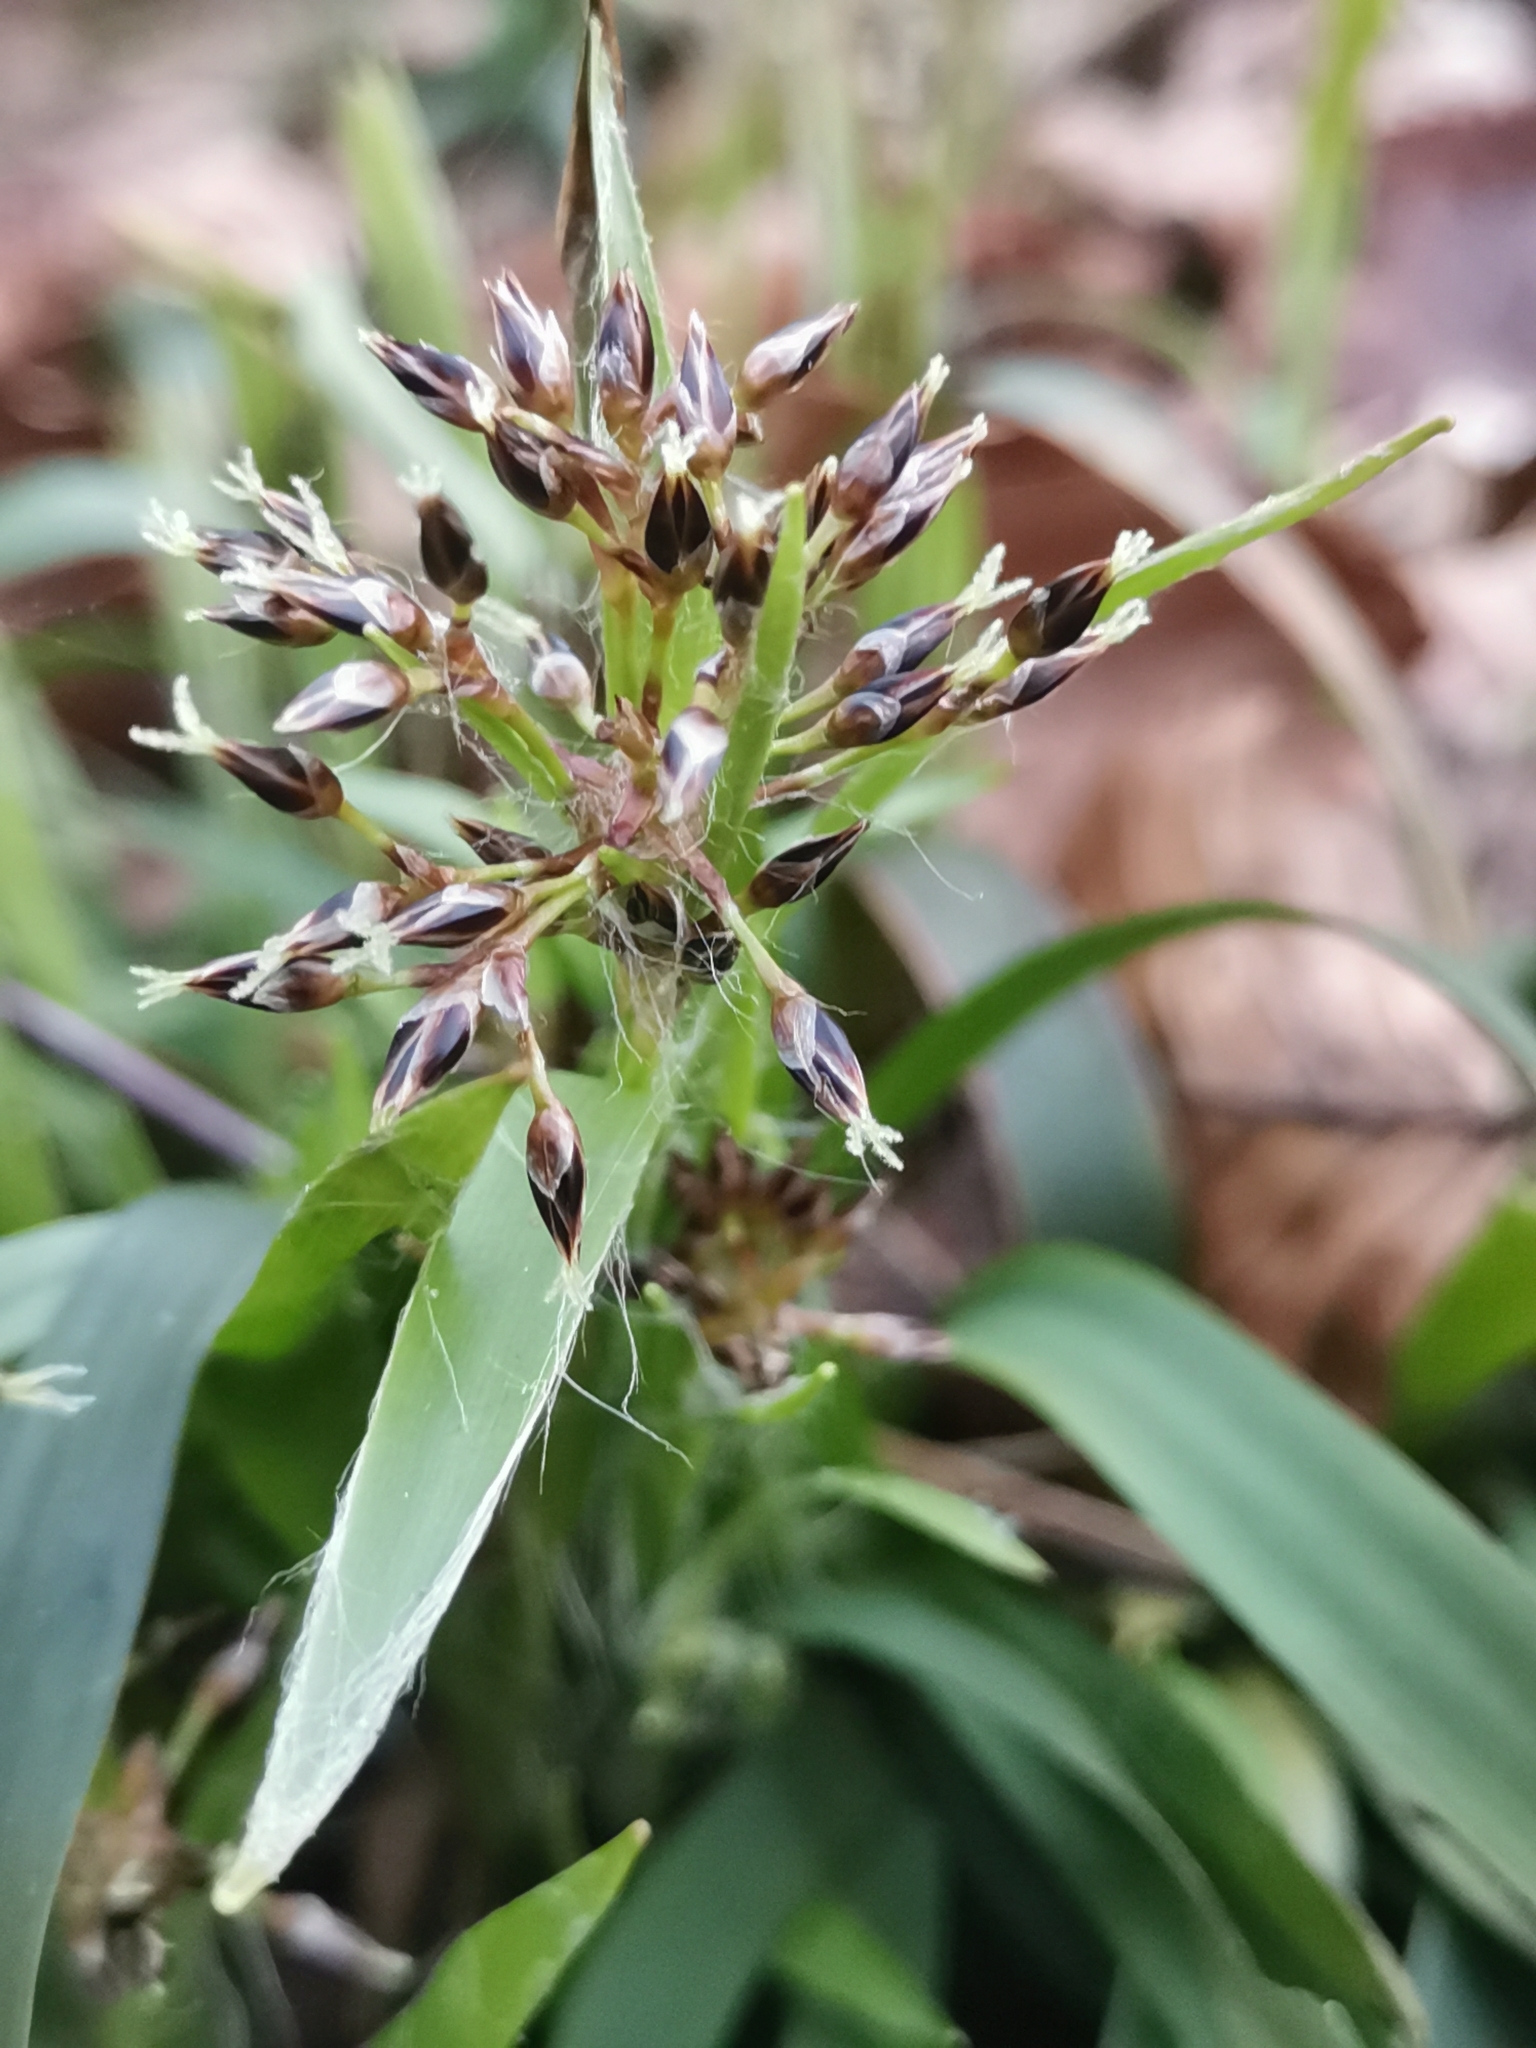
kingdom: Plantae
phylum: Tracheophyta
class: Liliopsida
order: Poales
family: Juncaceae
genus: Luzula
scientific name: Luzula pilosa
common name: Hairy wood-rush
